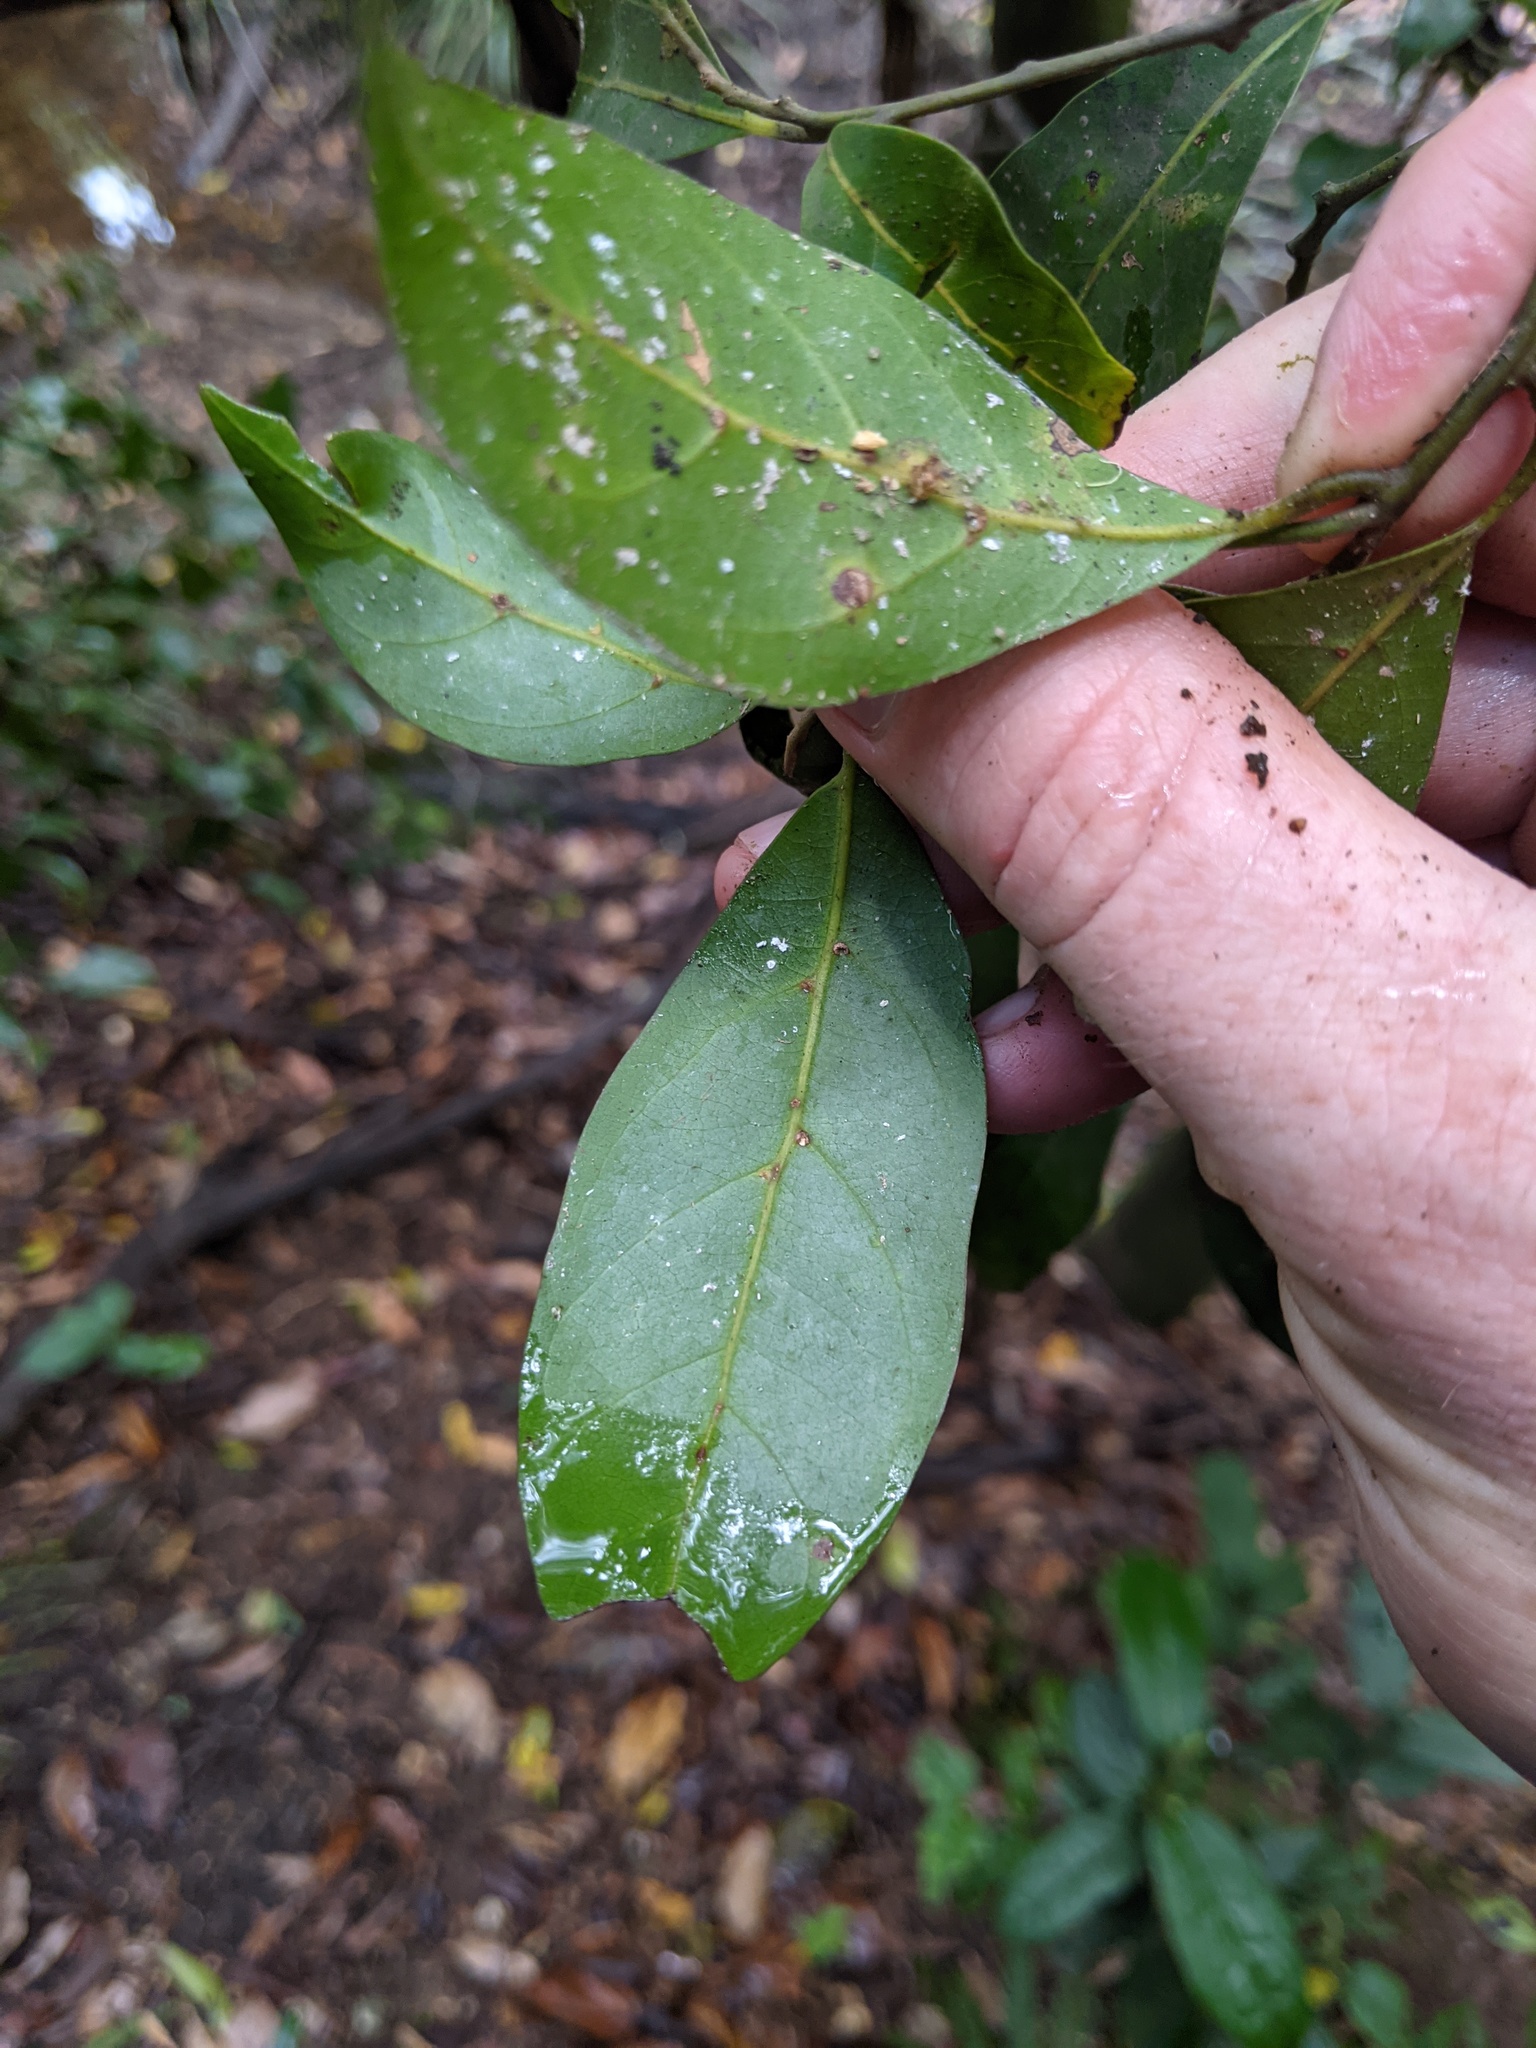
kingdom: Plantae
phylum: Tracheophyta
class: Magnoliopsida
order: Laurales
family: Lauraceae
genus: Endiandra
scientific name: Endiandra discolor
